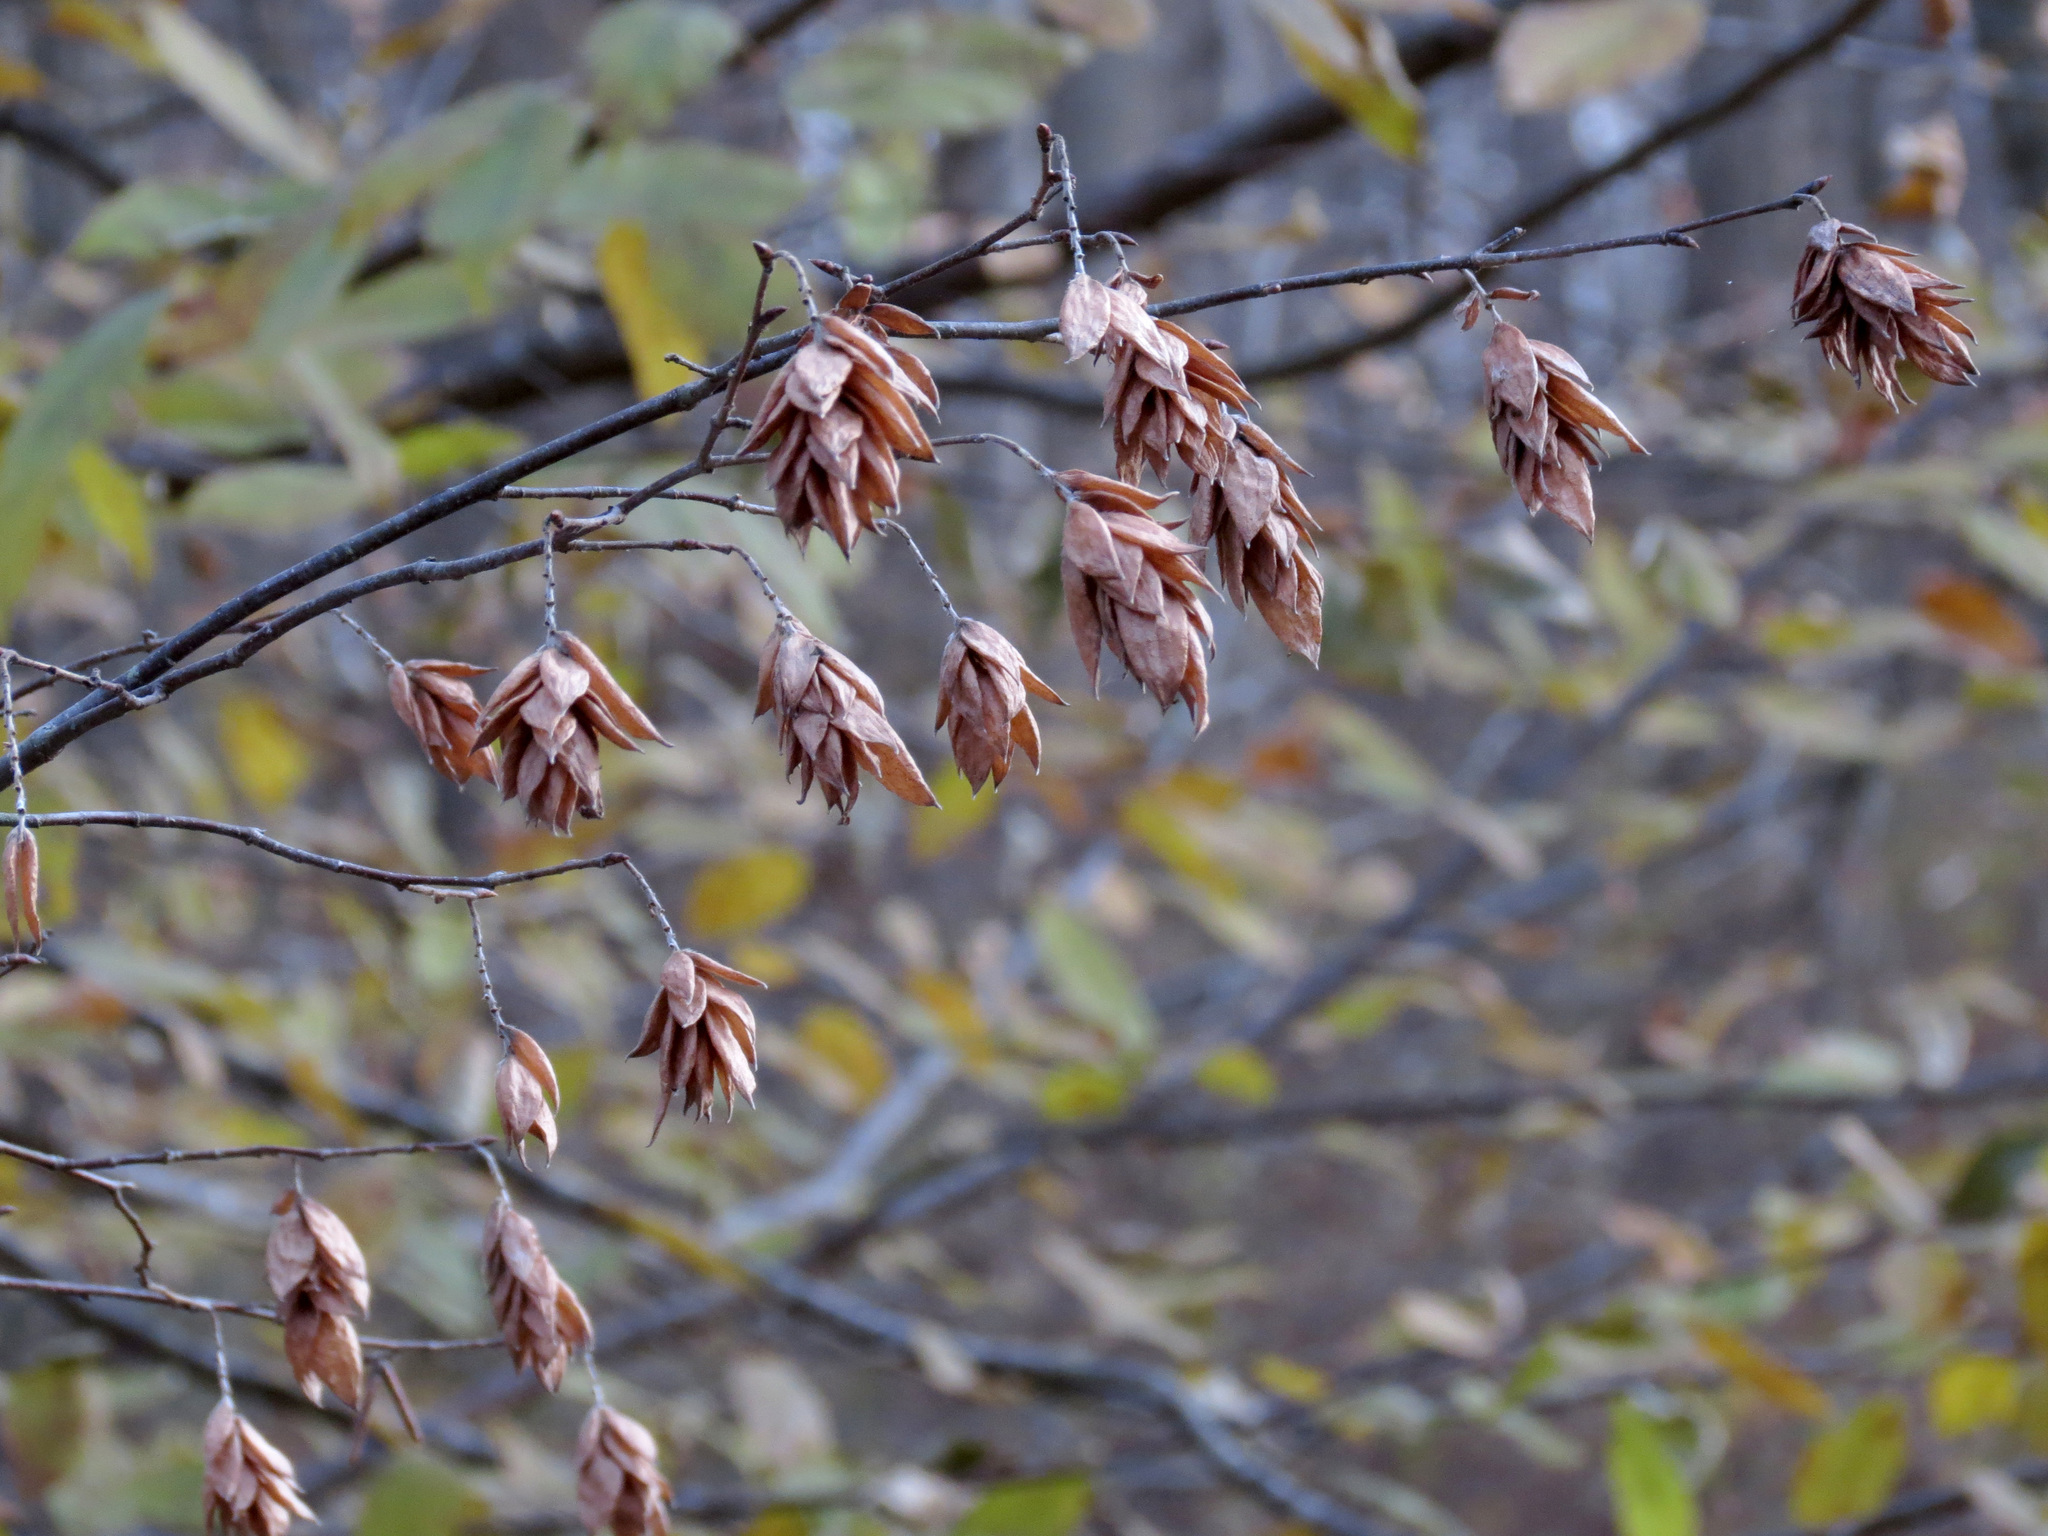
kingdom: Plantae
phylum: Tracheophyta
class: Magnoliopsida
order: Fagales
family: Betulaceae
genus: Ostrya
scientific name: Ostrya virginiana
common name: Ironwood
